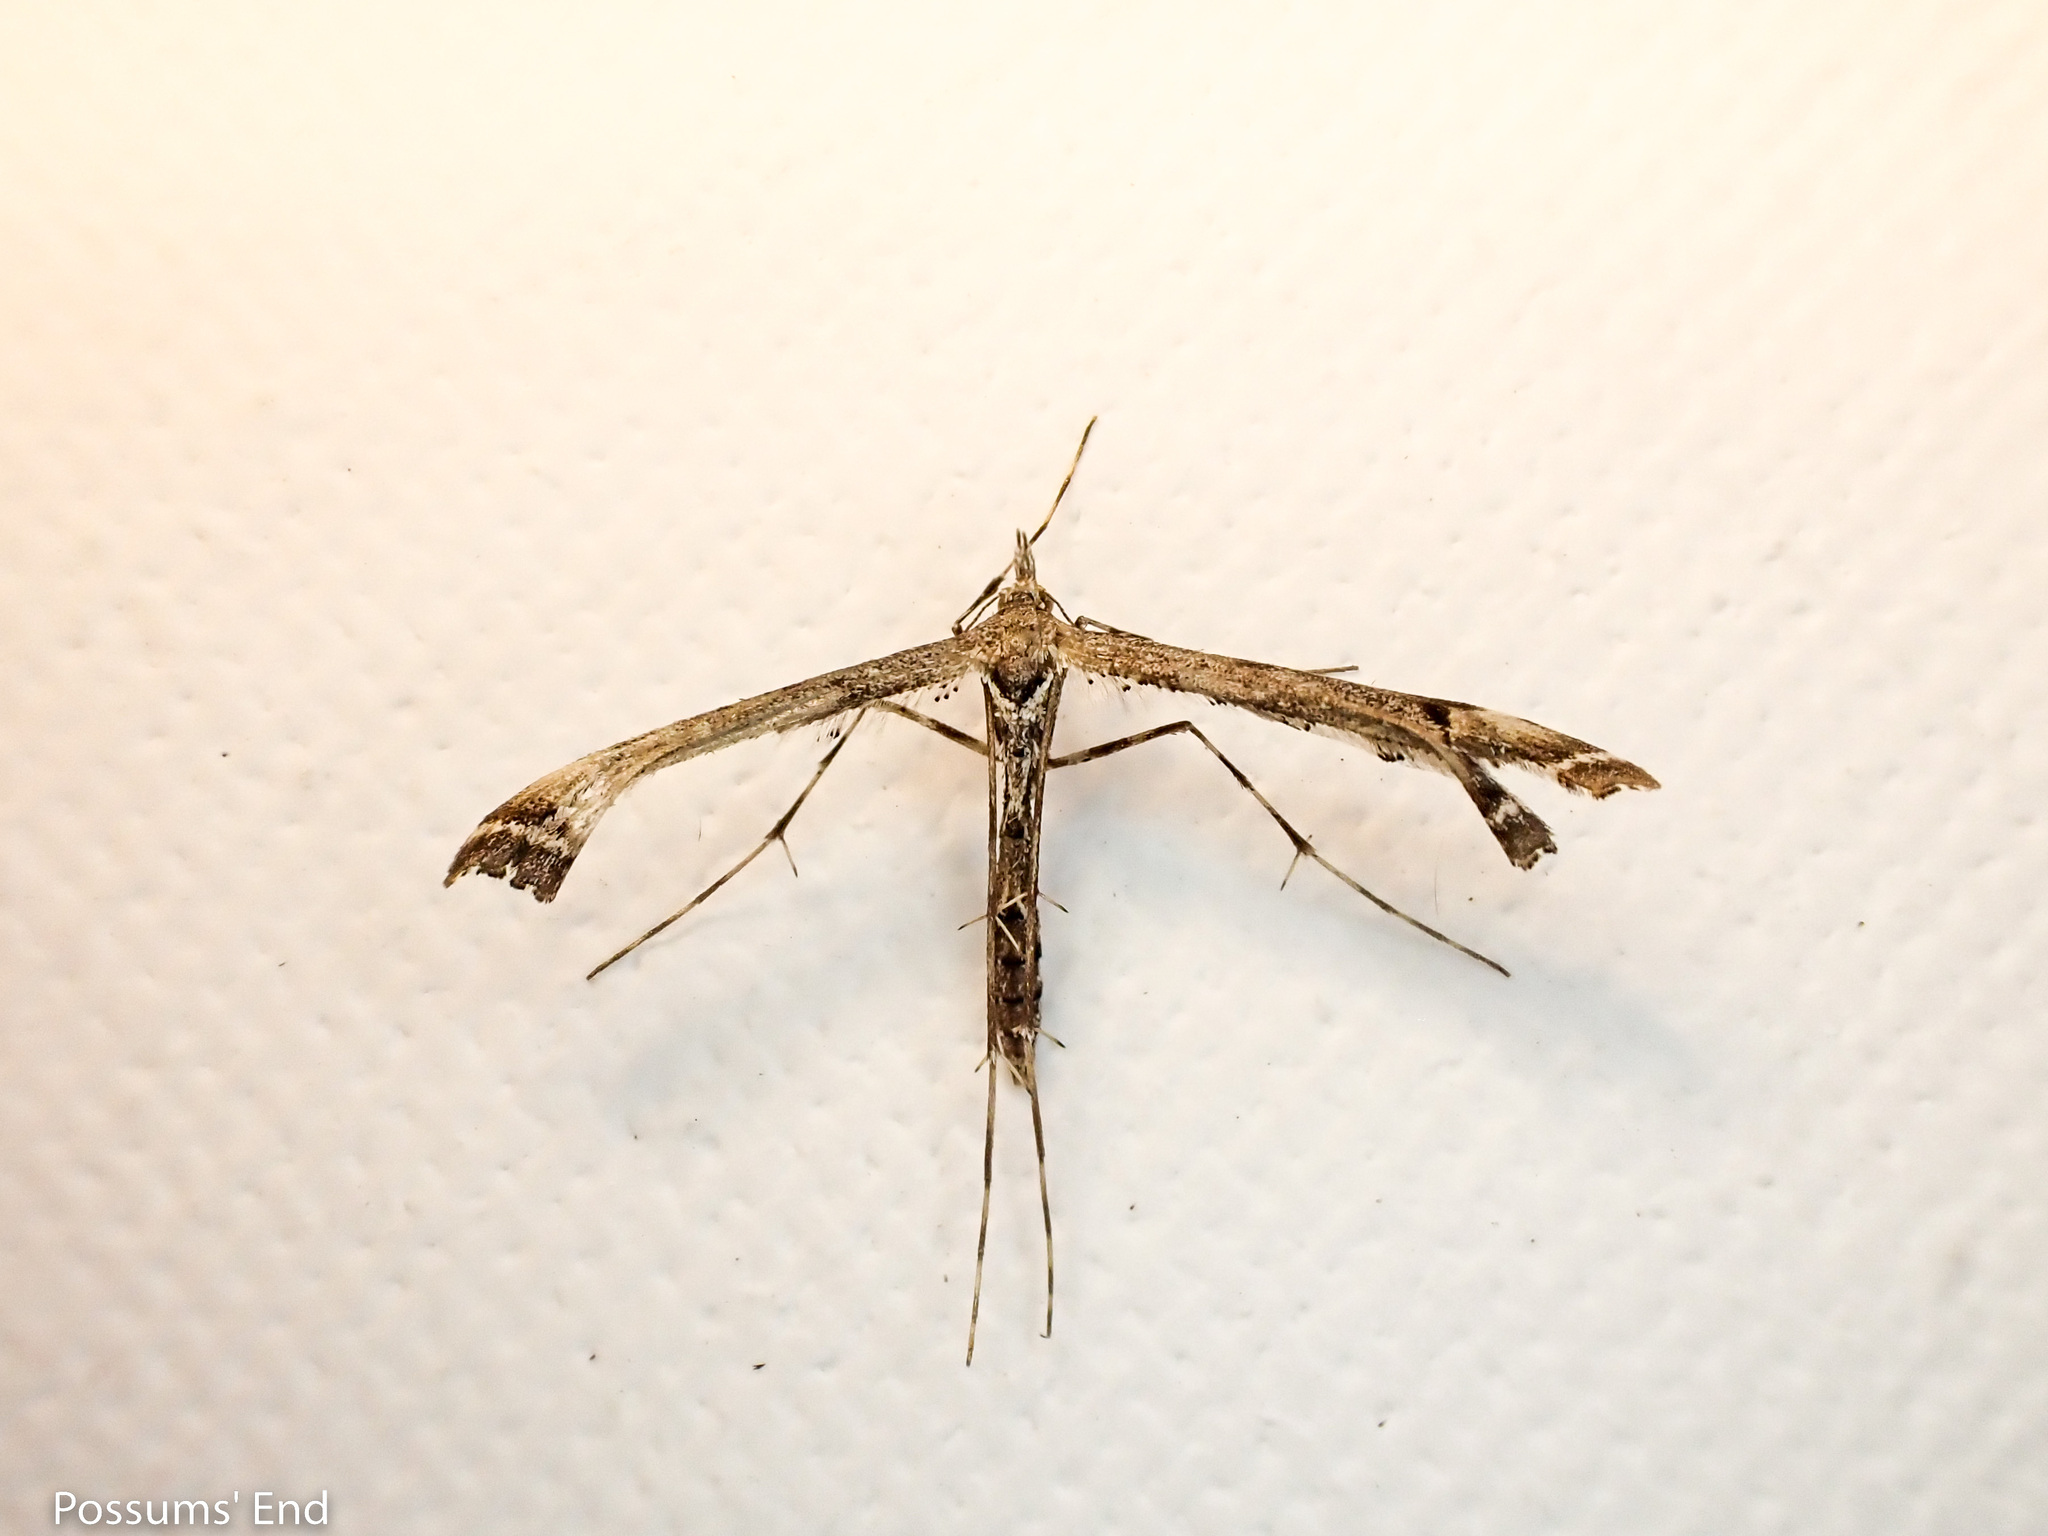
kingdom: Animalia
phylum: Arthropoda
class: Insecta
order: Lepidoptera
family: Pterophoridae
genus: Amblyptilia
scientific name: Amblyptilia repletalis
